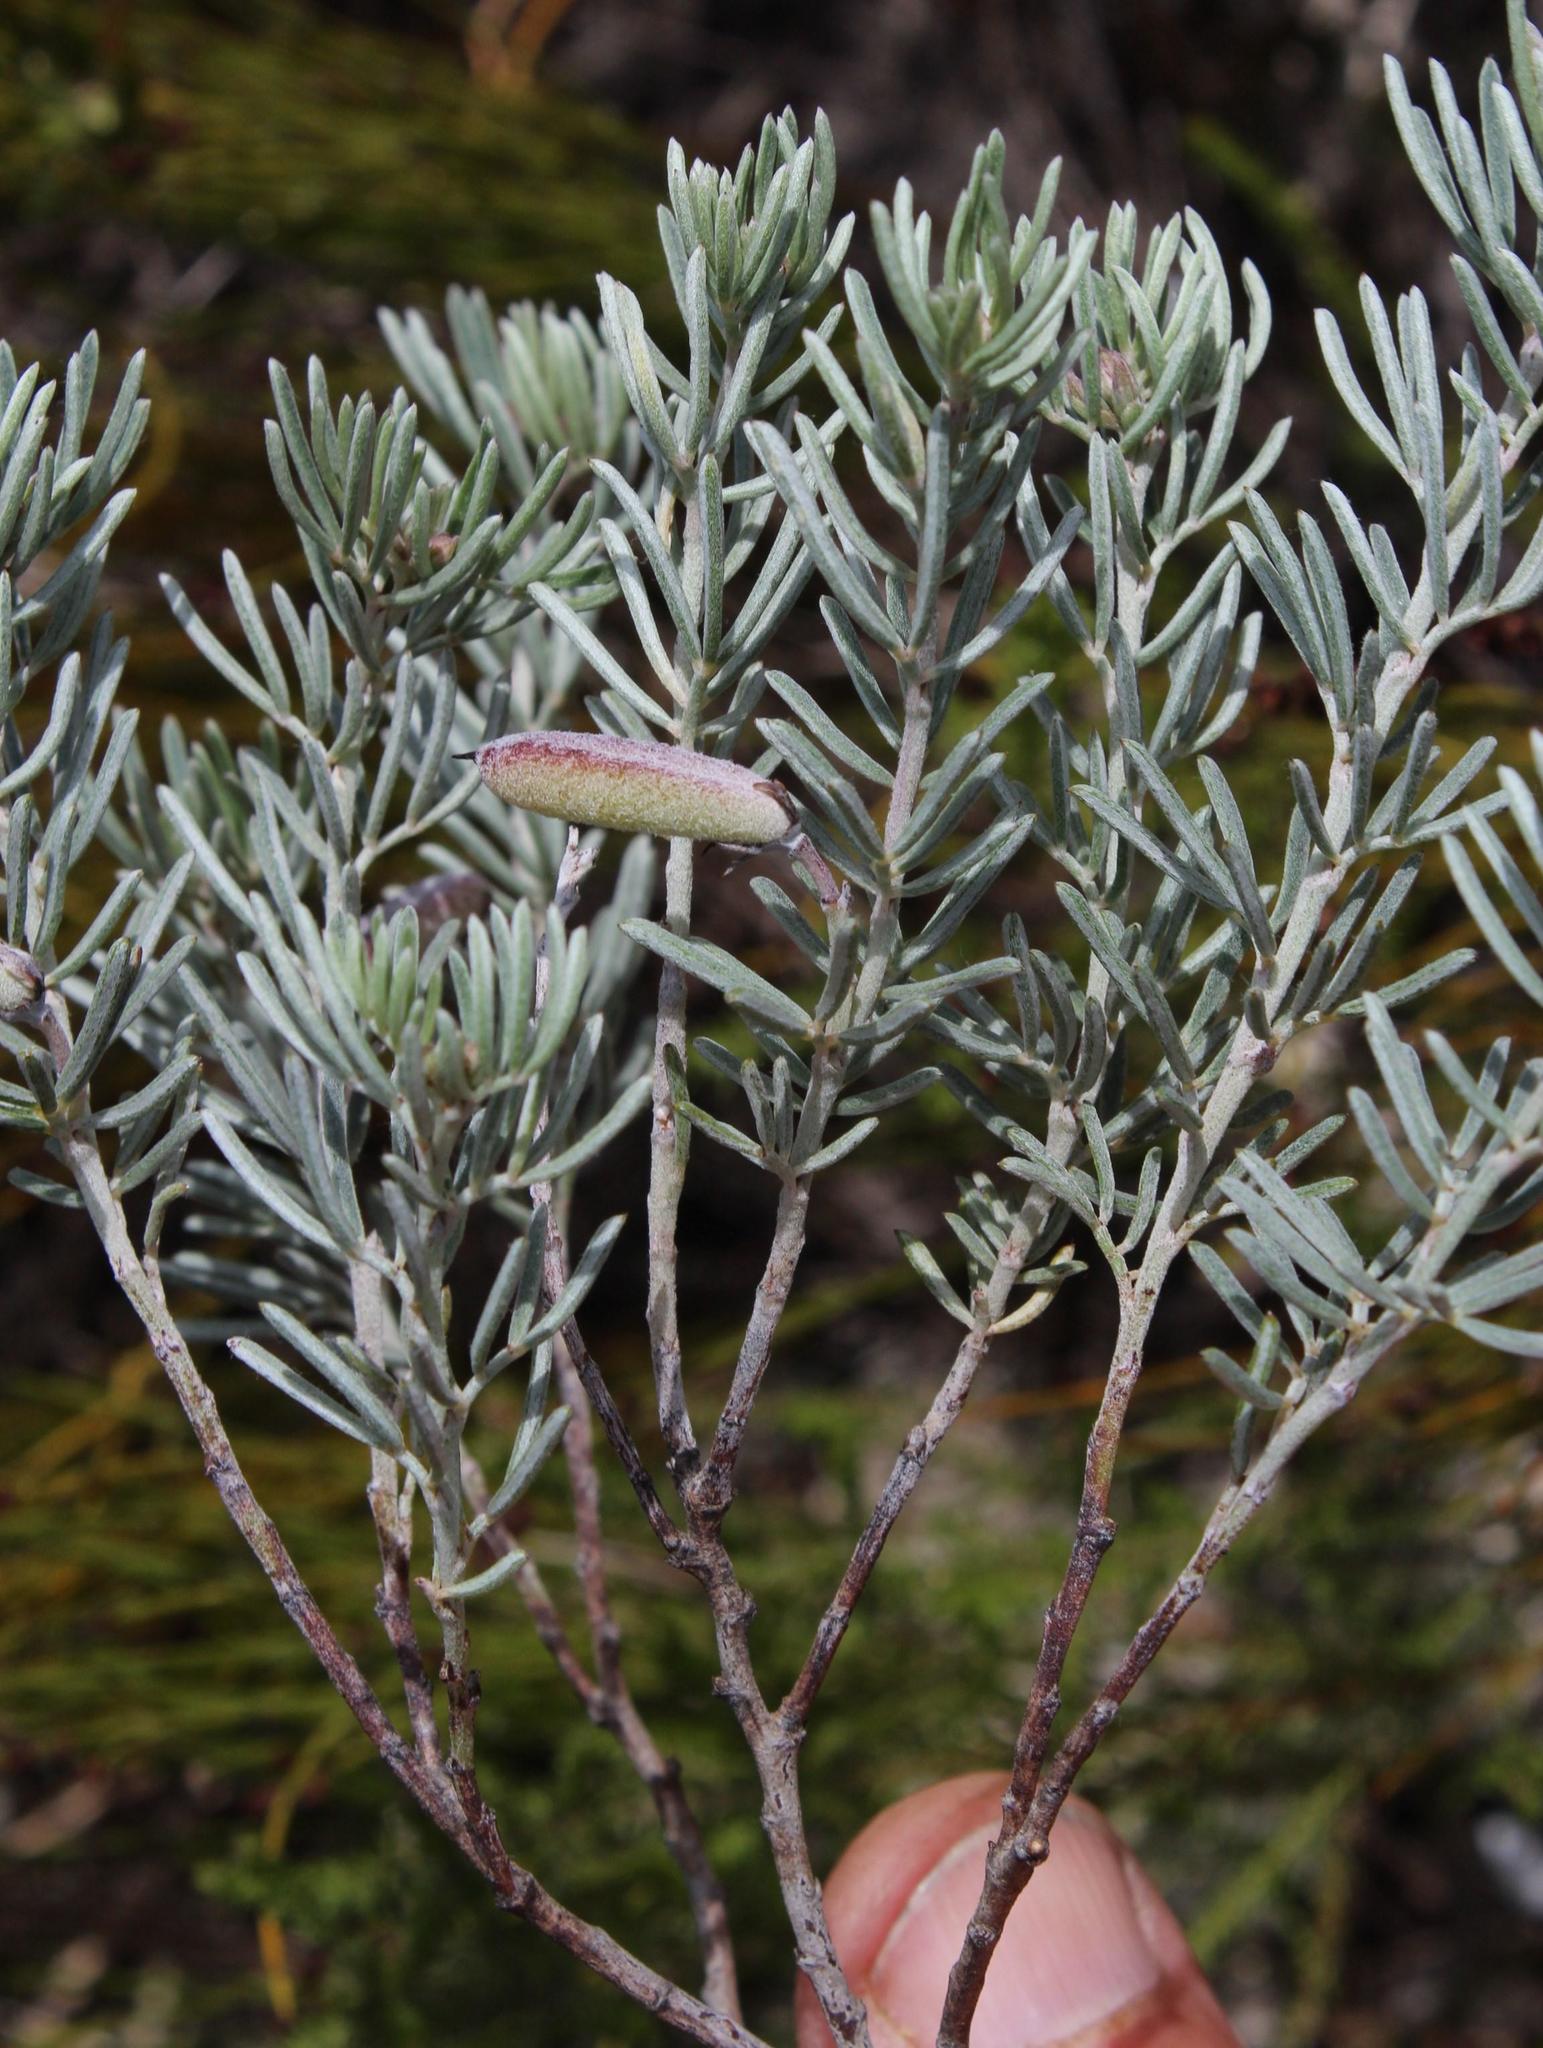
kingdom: Plantae
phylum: Tracheophyta
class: Magnoliopsida
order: Fabales
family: Fabaceae
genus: Indigofera
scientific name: Indigofera
